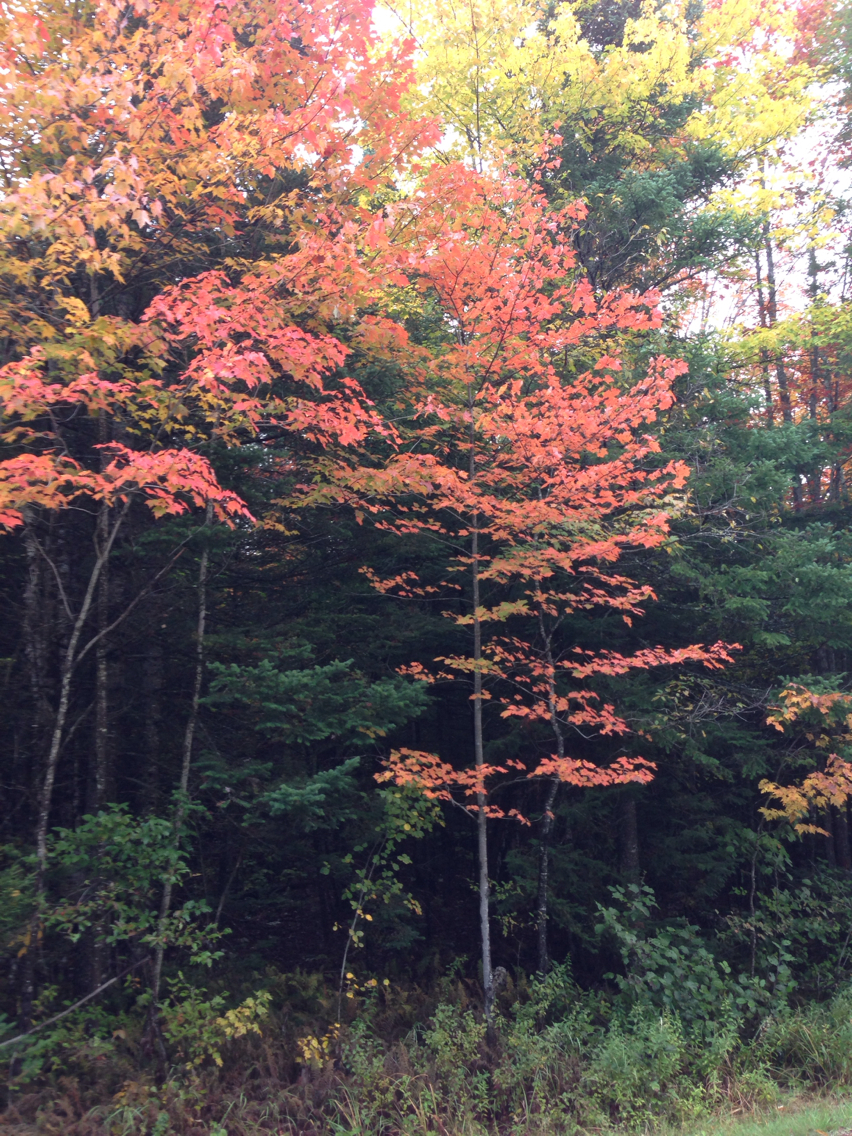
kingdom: Plantae
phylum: Tracheophyta
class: Magnoliopsida
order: Sapindales
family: Sapindaceae
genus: Acer
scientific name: Acer rubrum
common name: Red maple
